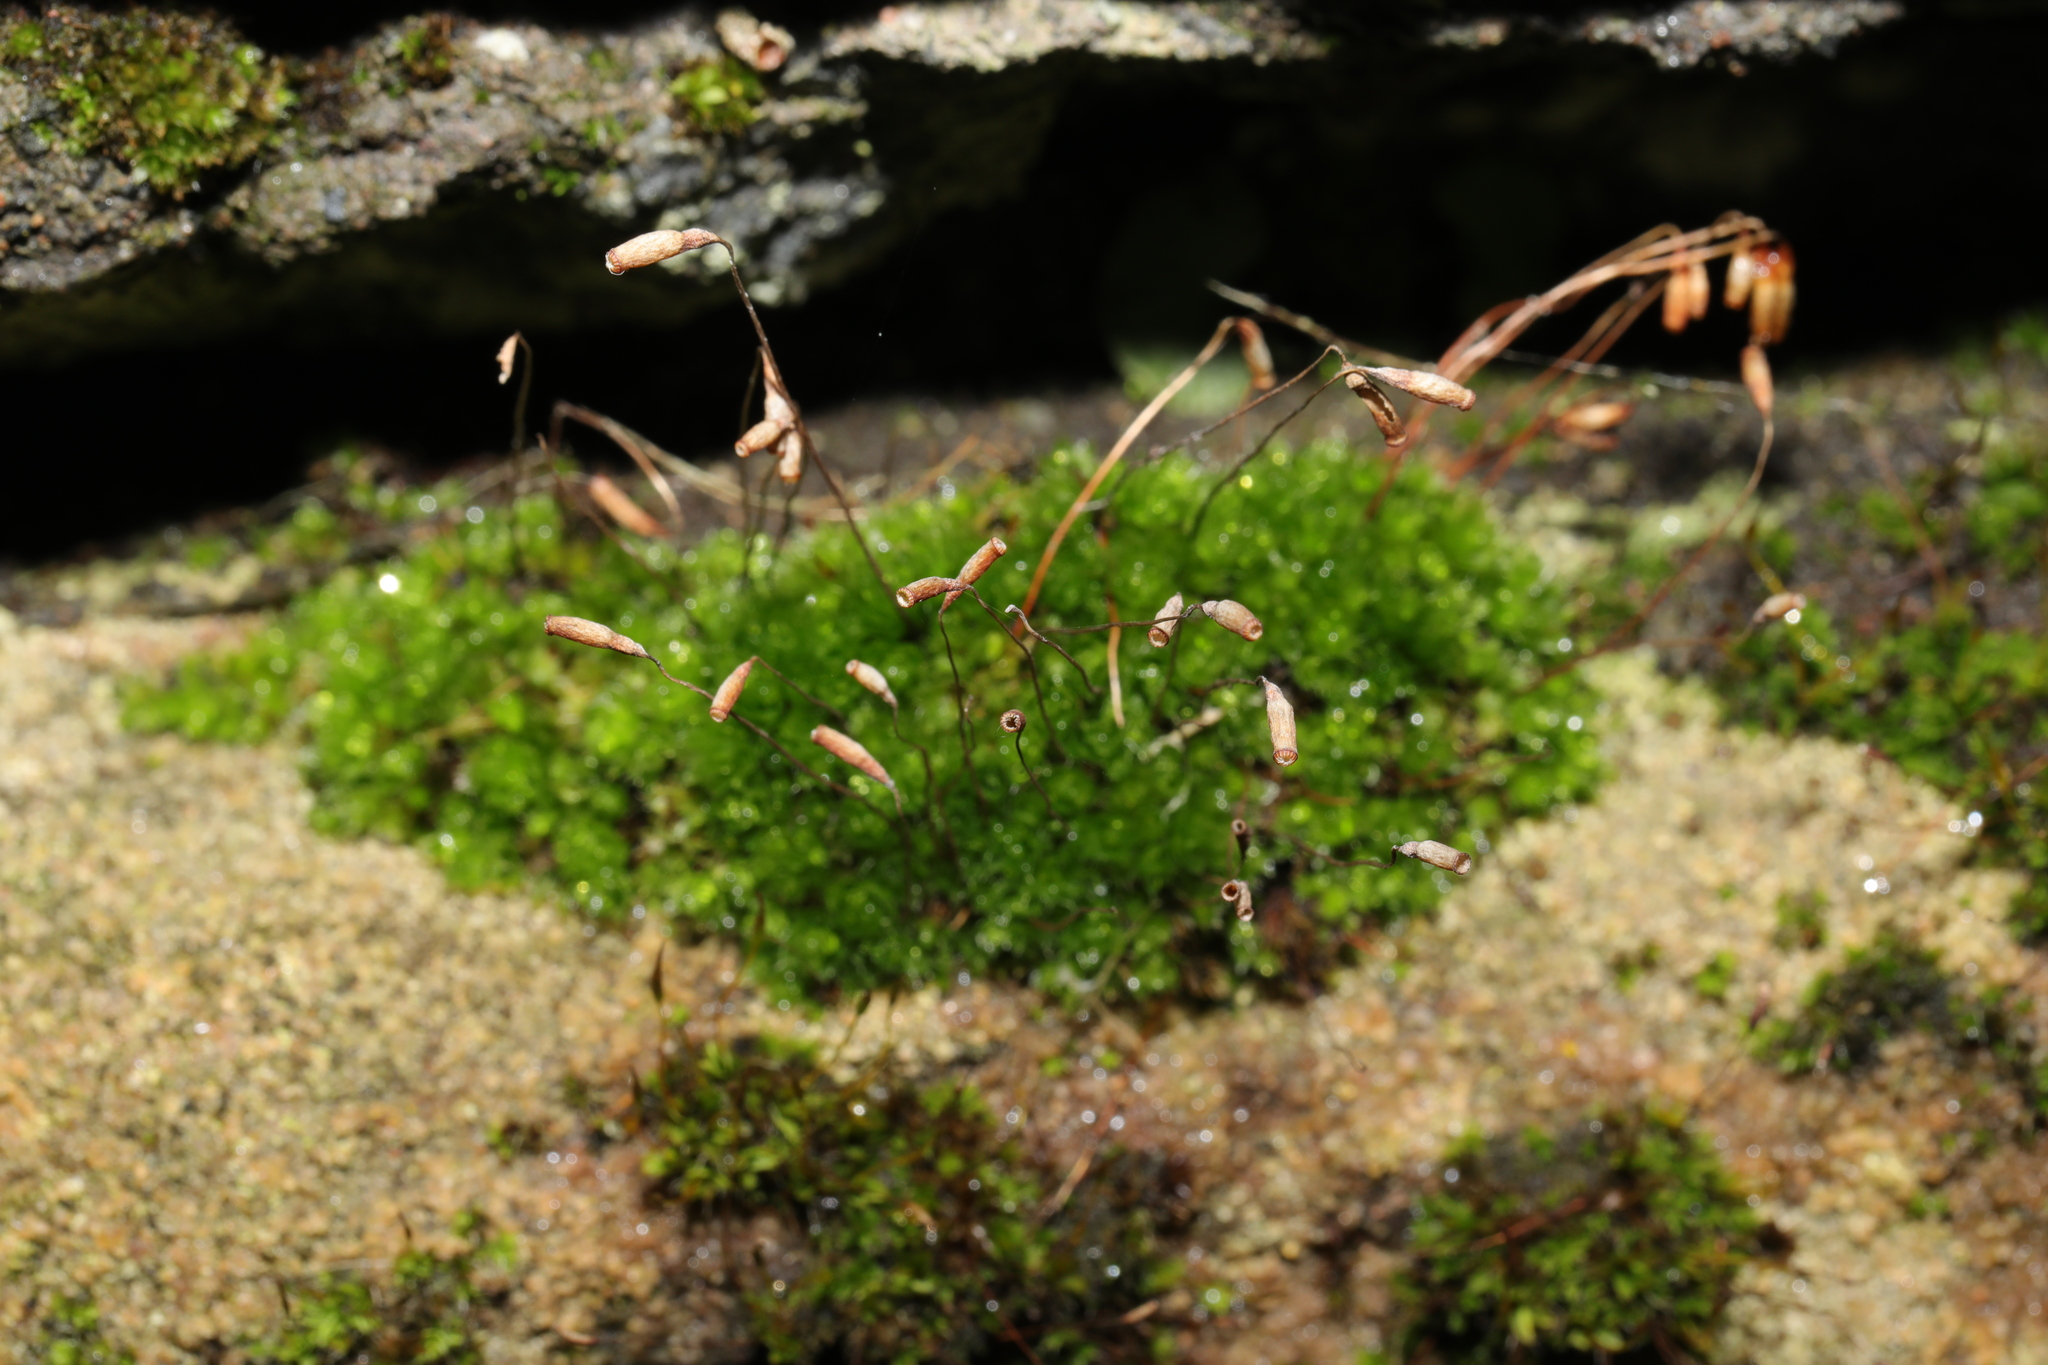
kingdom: Plantae
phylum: Bryophyta
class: Bryopsida
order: Bryales
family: Bryaceae
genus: Rosulabryum
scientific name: Rosulabryum capillare
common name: Capillary thread-moss
